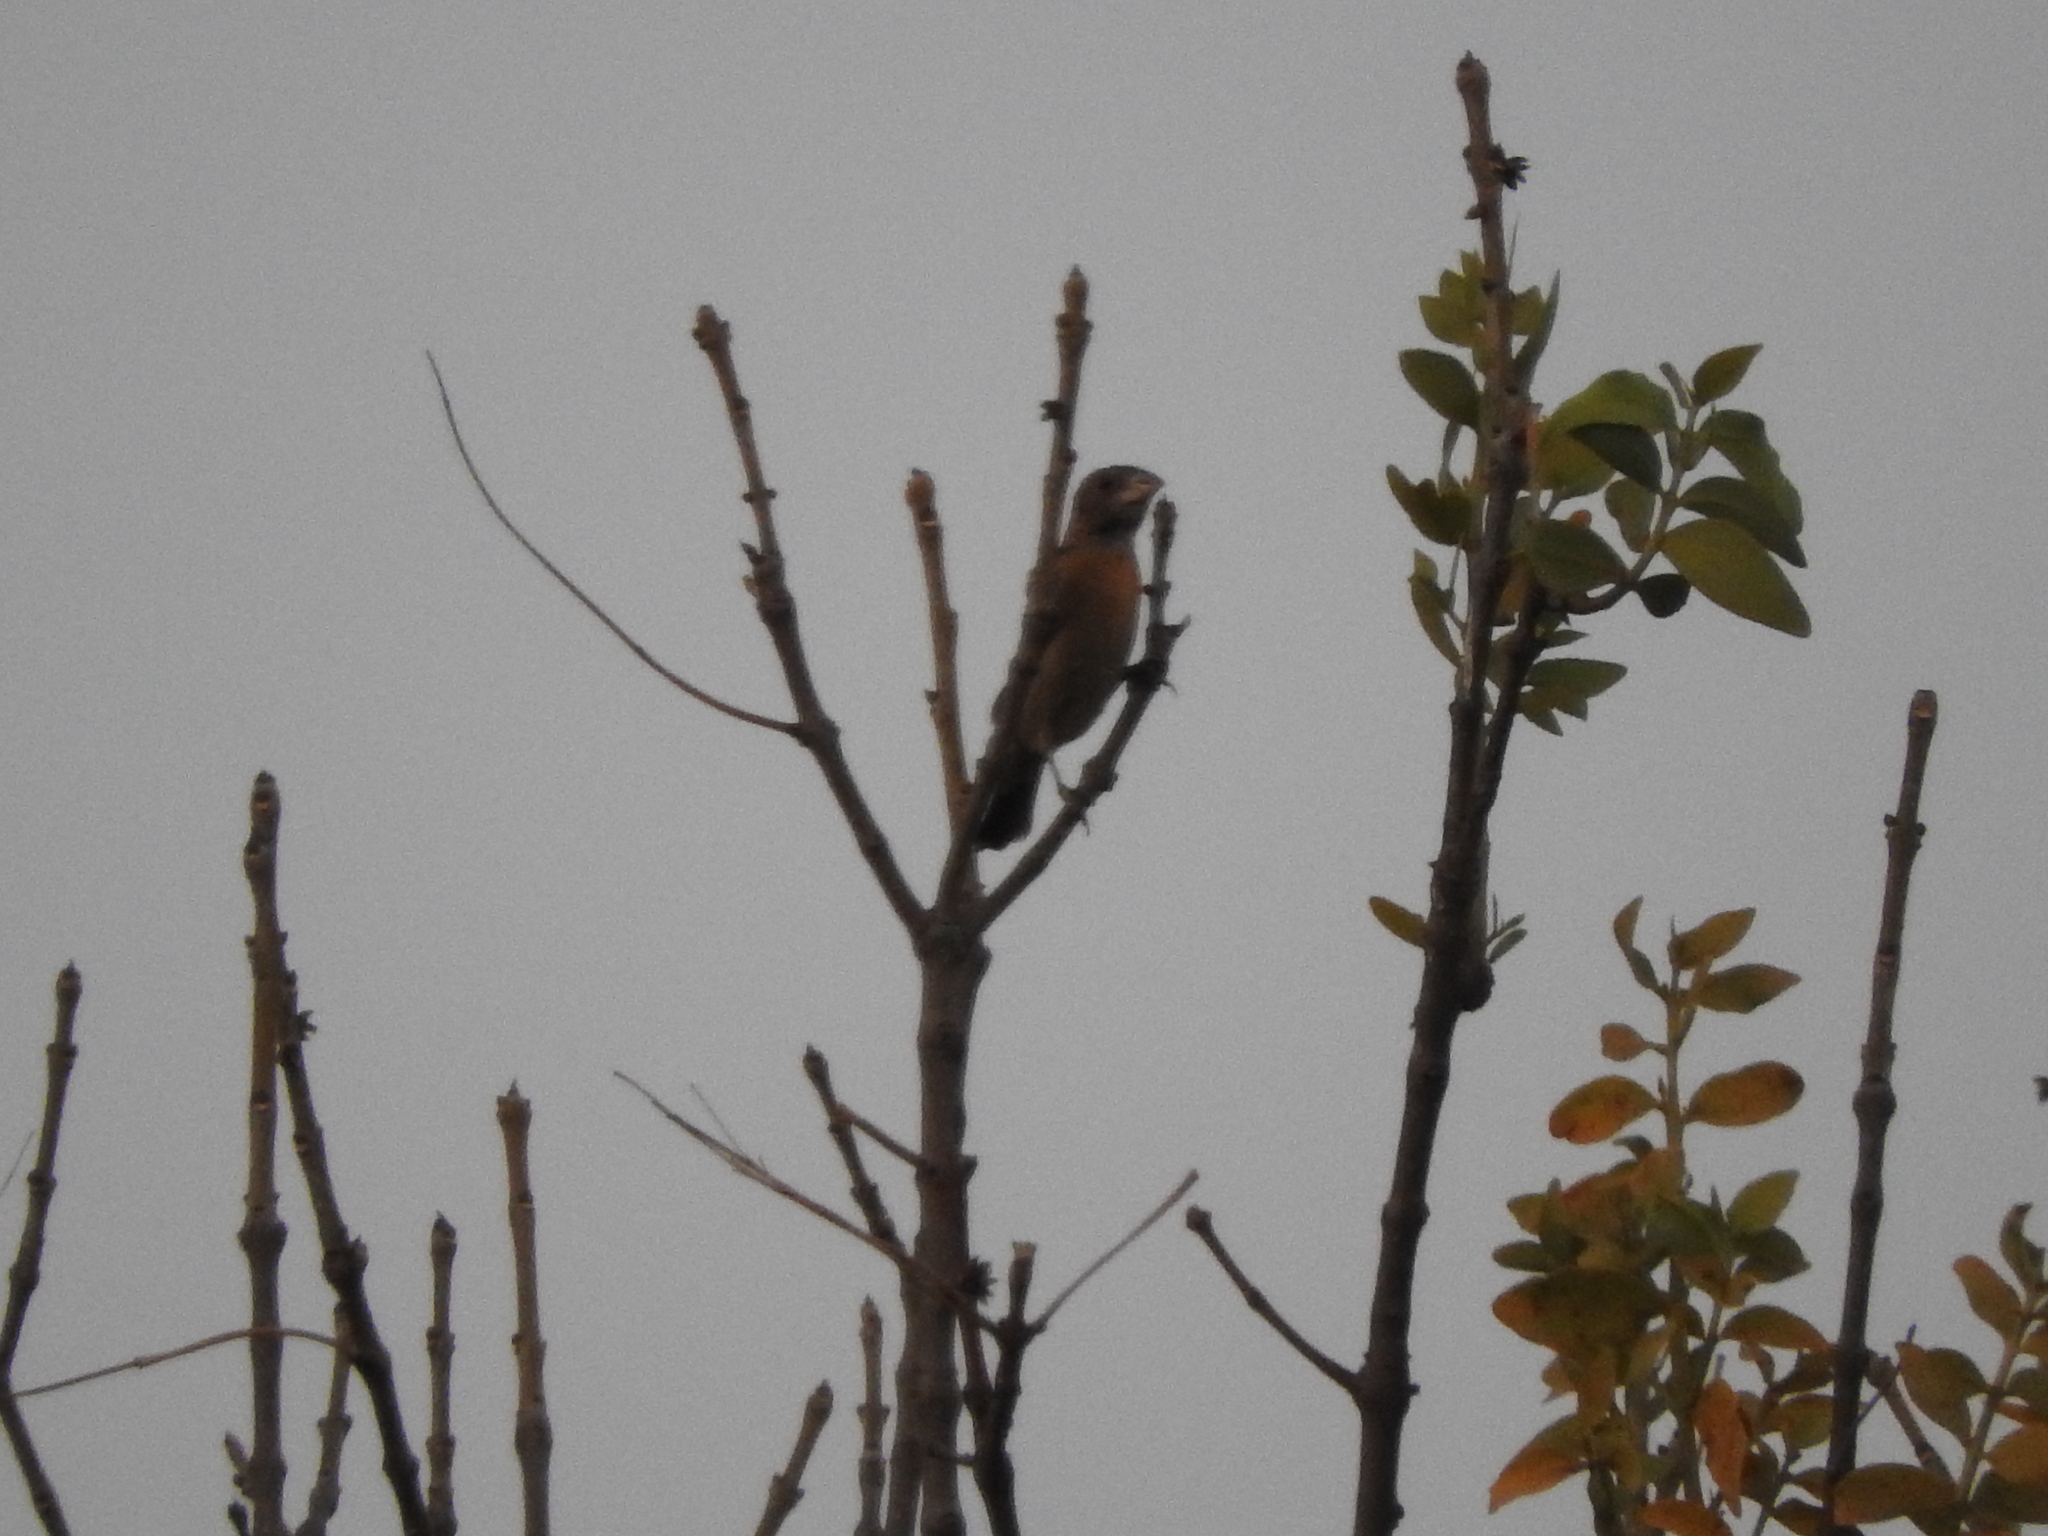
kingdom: Animalia
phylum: Chordata
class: Aves
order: Passeriformes
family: Cardinalidae
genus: Passerina
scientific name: Passerina caerulea
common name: Blue grosbeak
